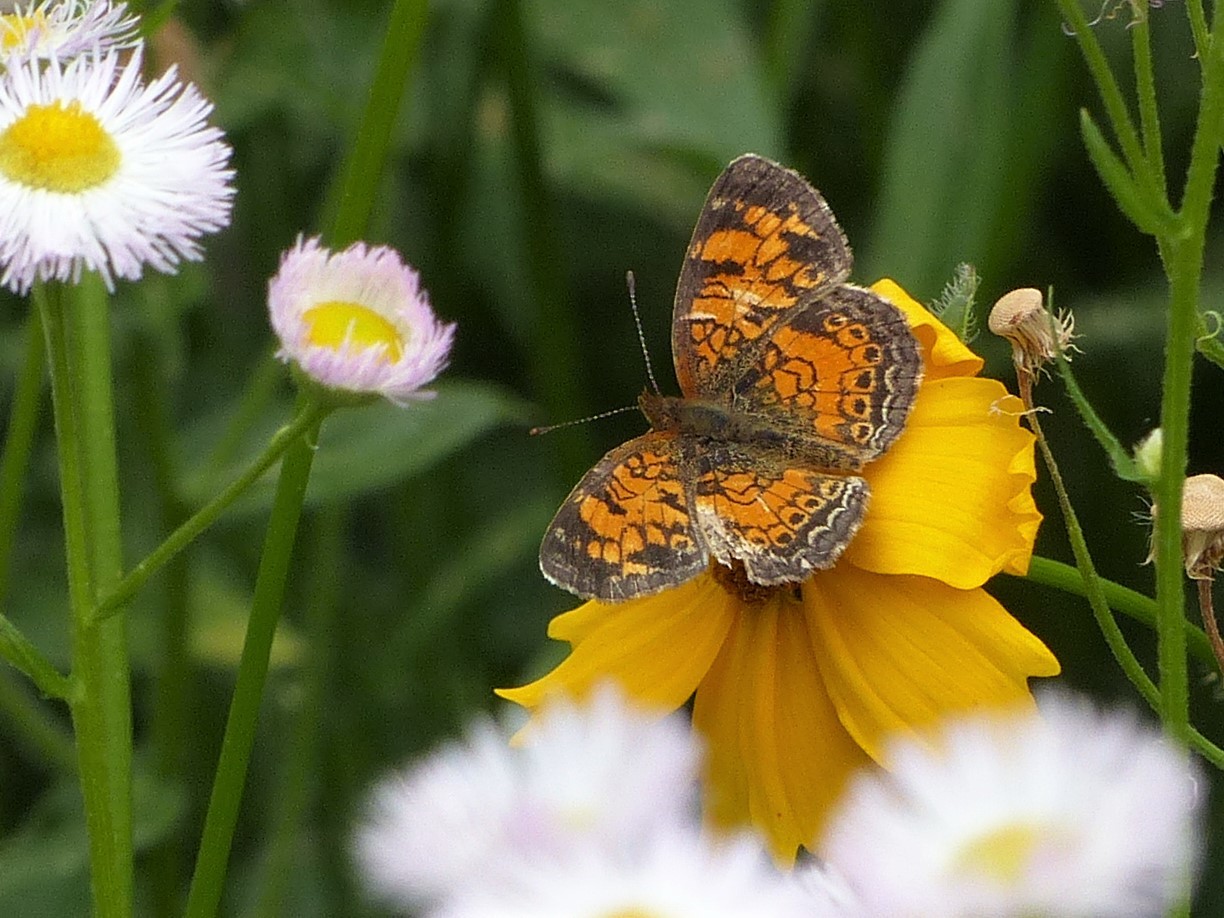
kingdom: Animalia
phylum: Arthropoda
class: Insecta
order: Lepidoptera
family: Nymphalidae
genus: Phyciodes
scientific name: Phyciodes tharos
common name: Pearl crescent
